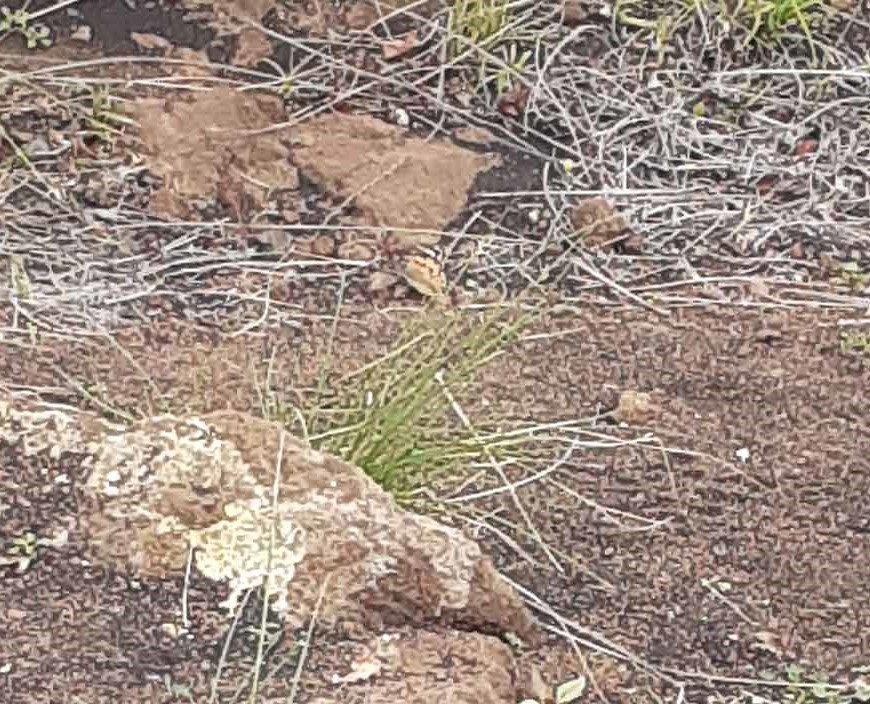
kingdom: Animalia
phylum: Arthropoda
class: Insecta
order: Lepidoptera
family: Nymphalidae
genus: Vanessa
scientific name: Vanessa cardui
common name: Painted lady
